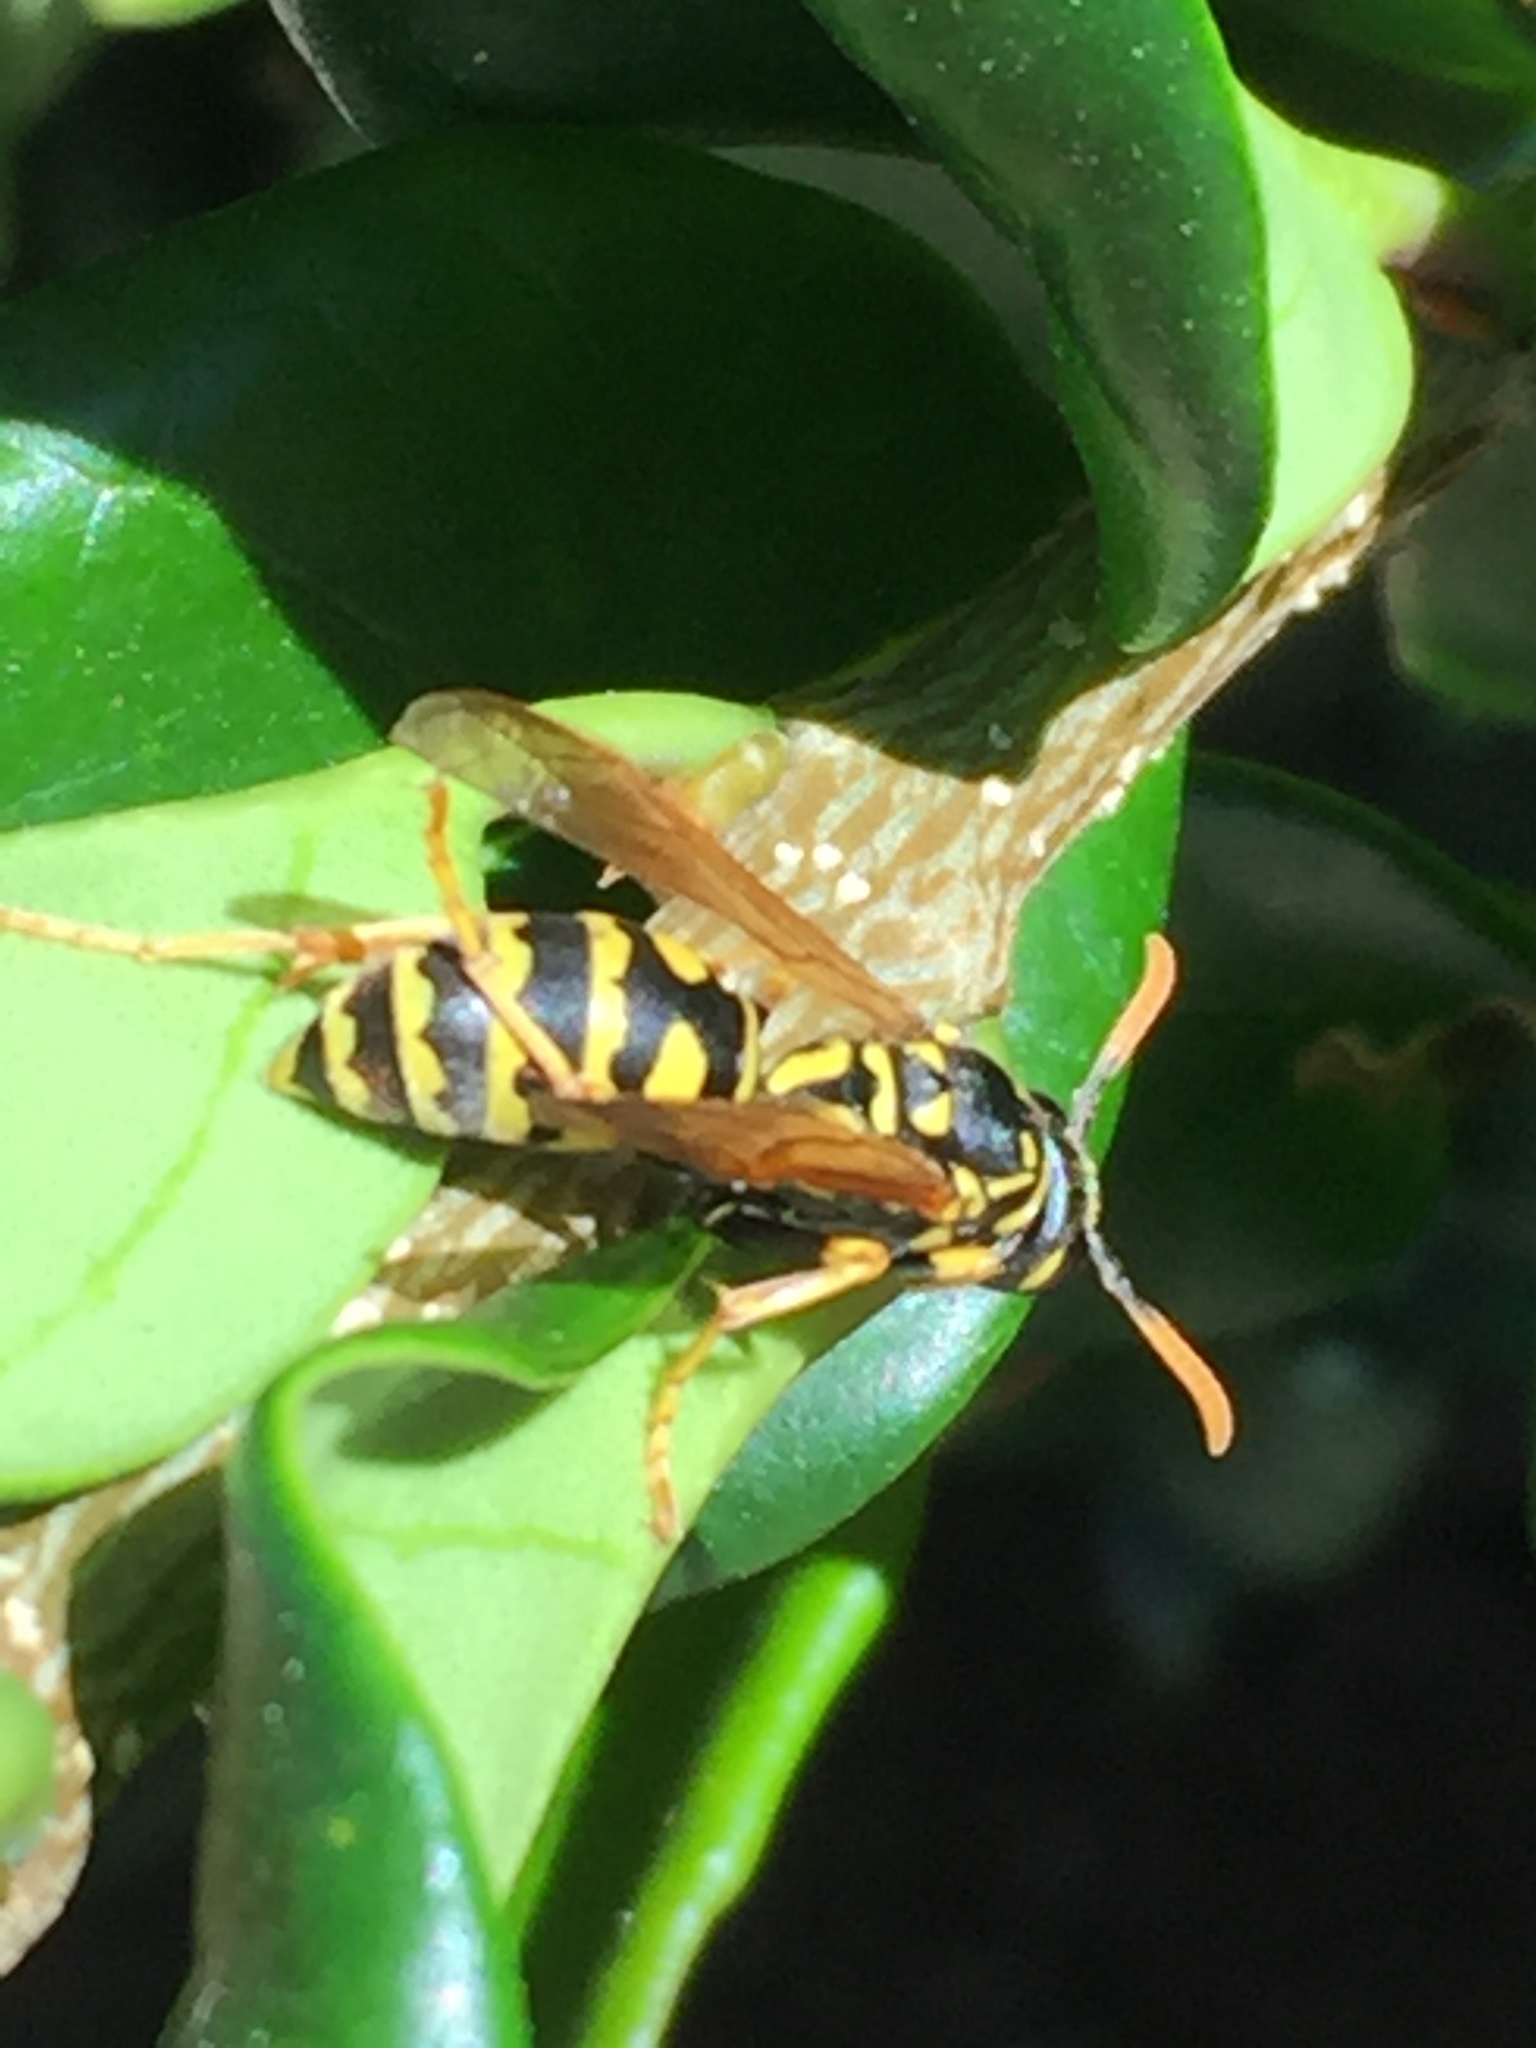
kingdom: Animalia
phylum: Arthropoda
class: Insecta
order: Hymenoptera
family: Eumenidae
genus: Polistes
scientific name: Polistes dominula
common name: Paper wasp
